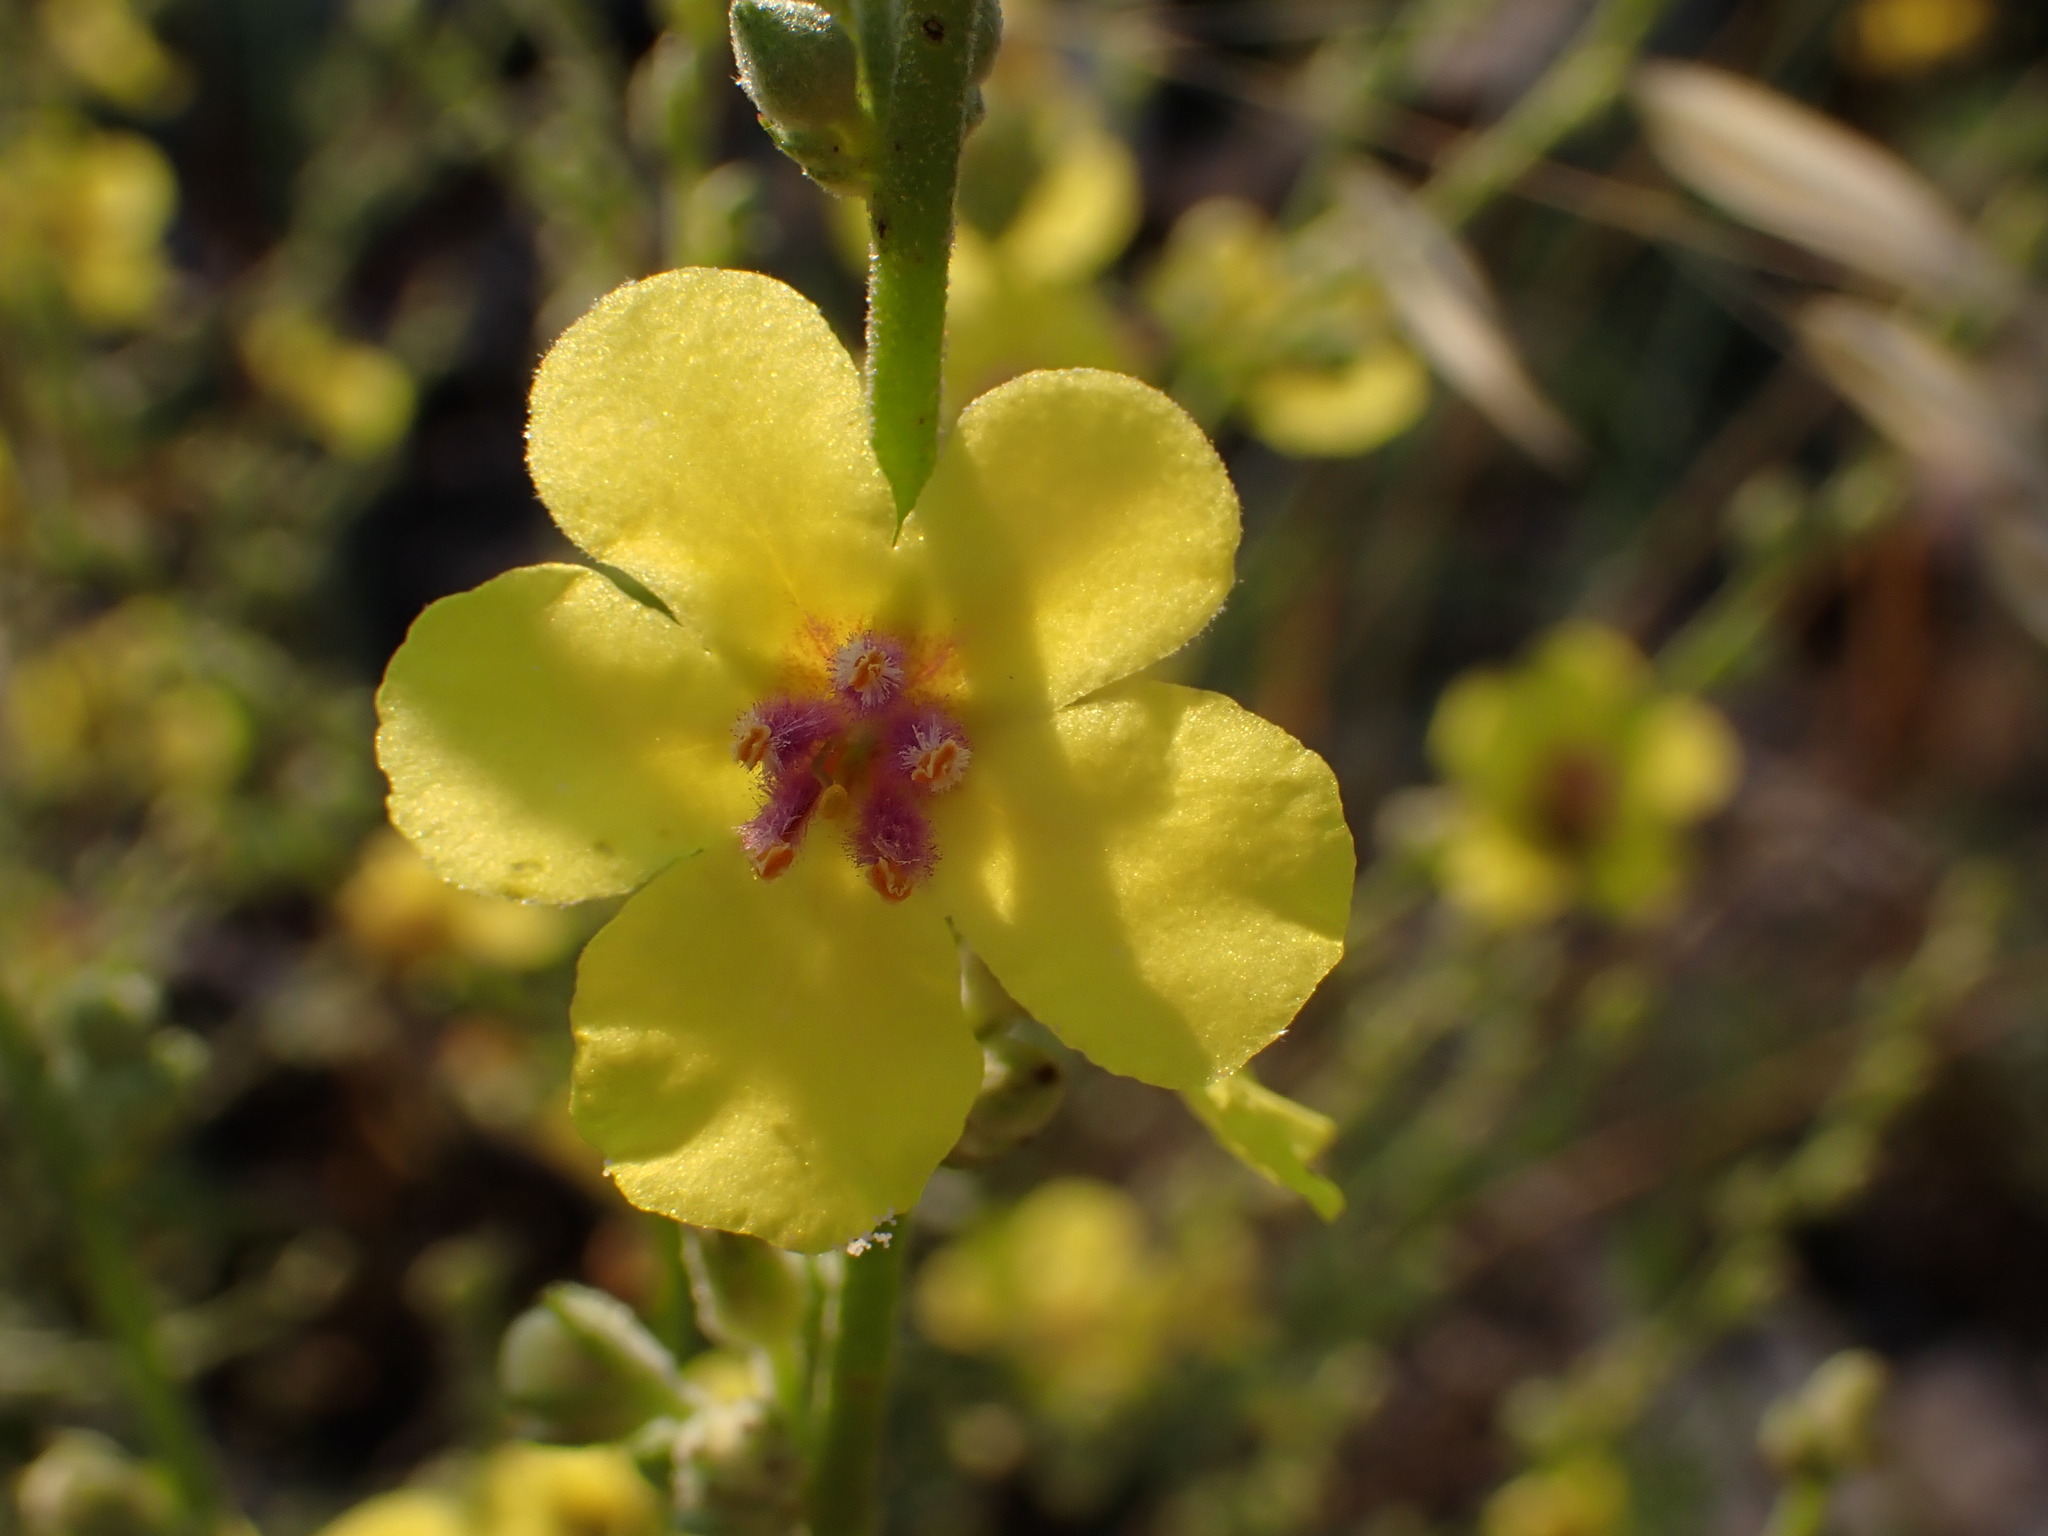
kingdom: Plantae
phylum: Tracheophyta
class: Magnoliopsida
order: Lamiales
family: Scrophulariaceae
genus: Verbascum
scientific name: Verbascum sinuatum
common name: Wavyleaf mullein
